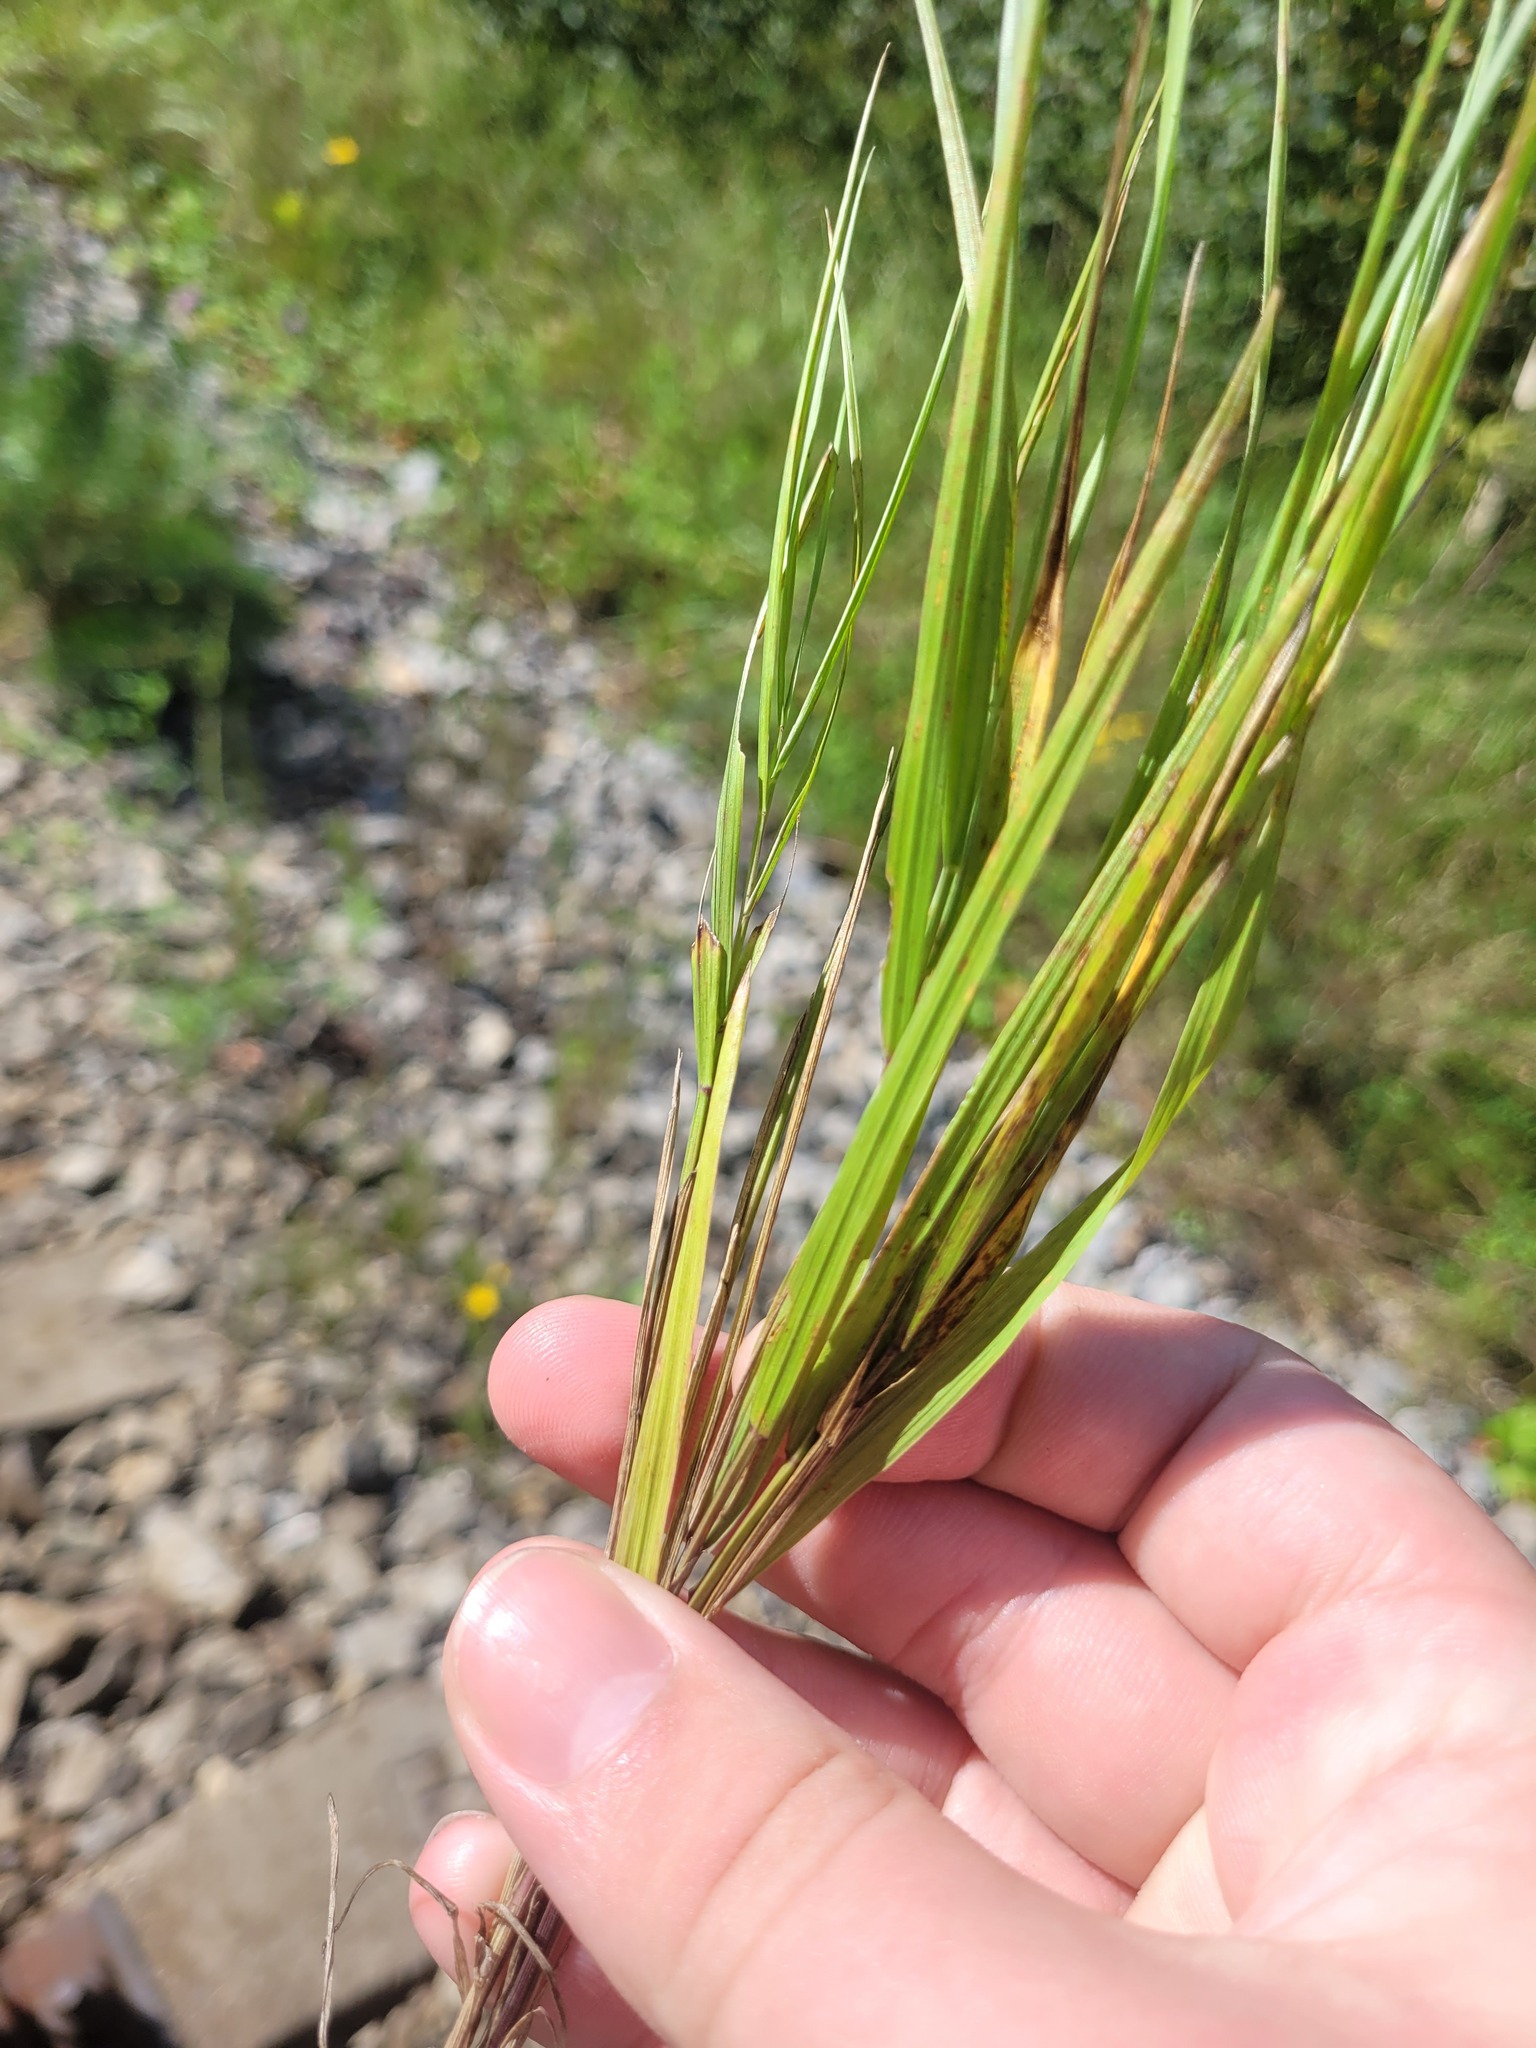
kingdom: Plantae
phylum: Tracheophyta
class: Liliopsida
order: Poales
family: Poaceae
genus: Melica
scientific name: Melica nutans
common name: Mountain melick
